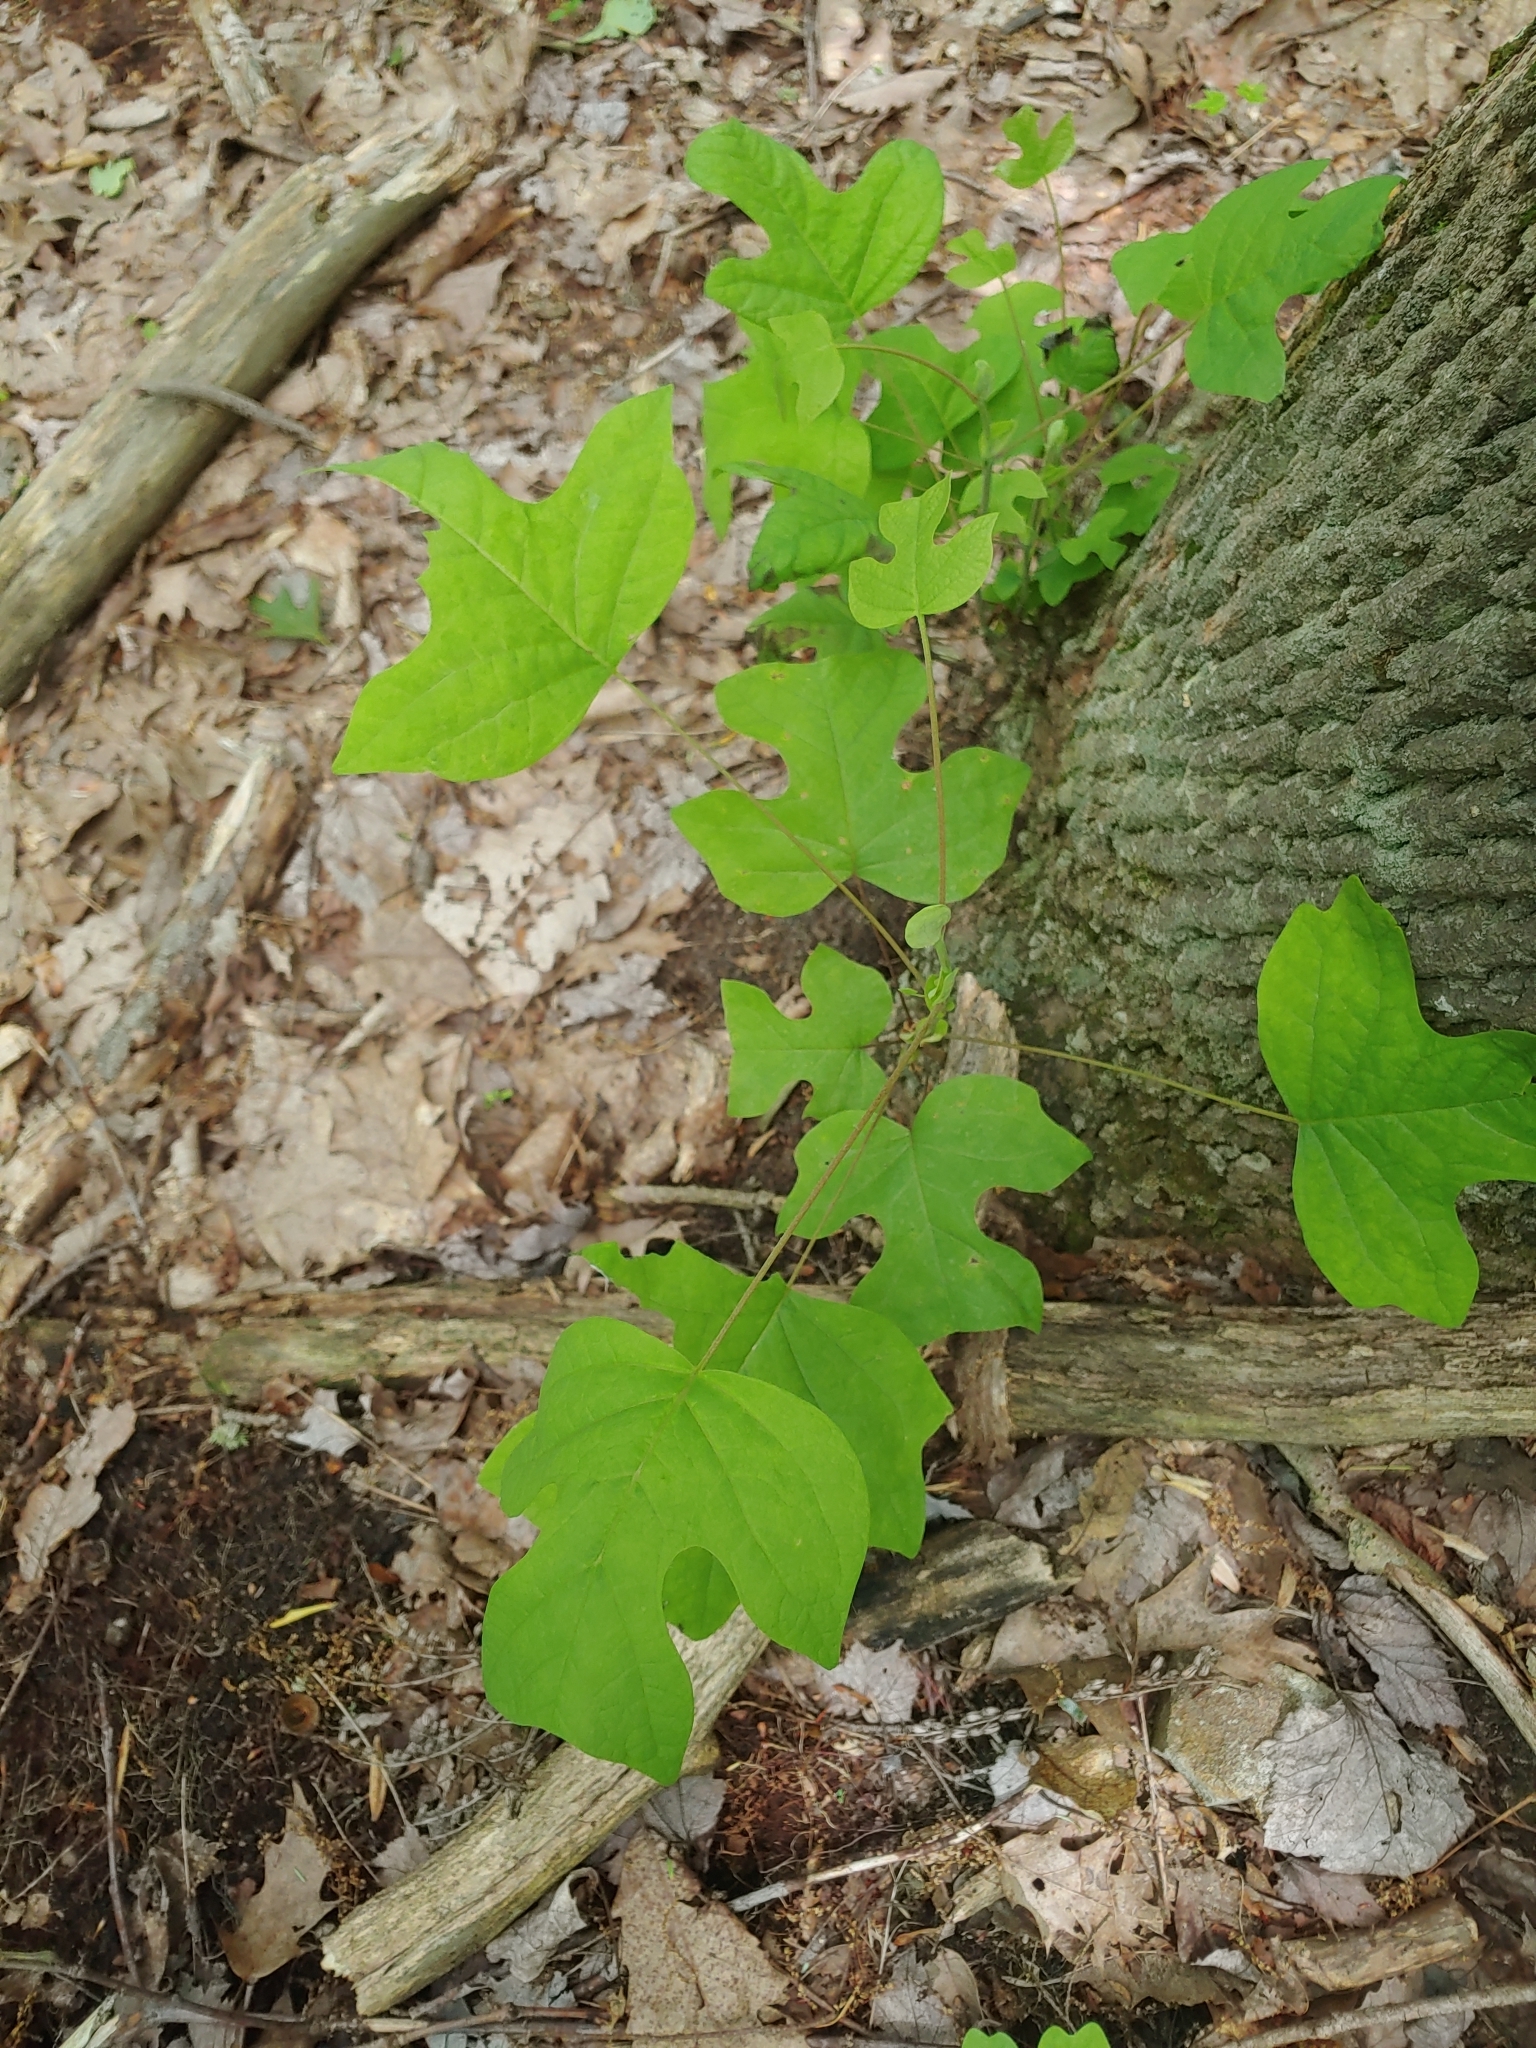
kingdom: Plantae
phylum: Tracheophyta
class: Magnoliopsida
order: Magnoliales
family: Magnoliaceae
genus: Liriodendron
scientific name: Liriodendron tulipifera
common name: Tulip tree
